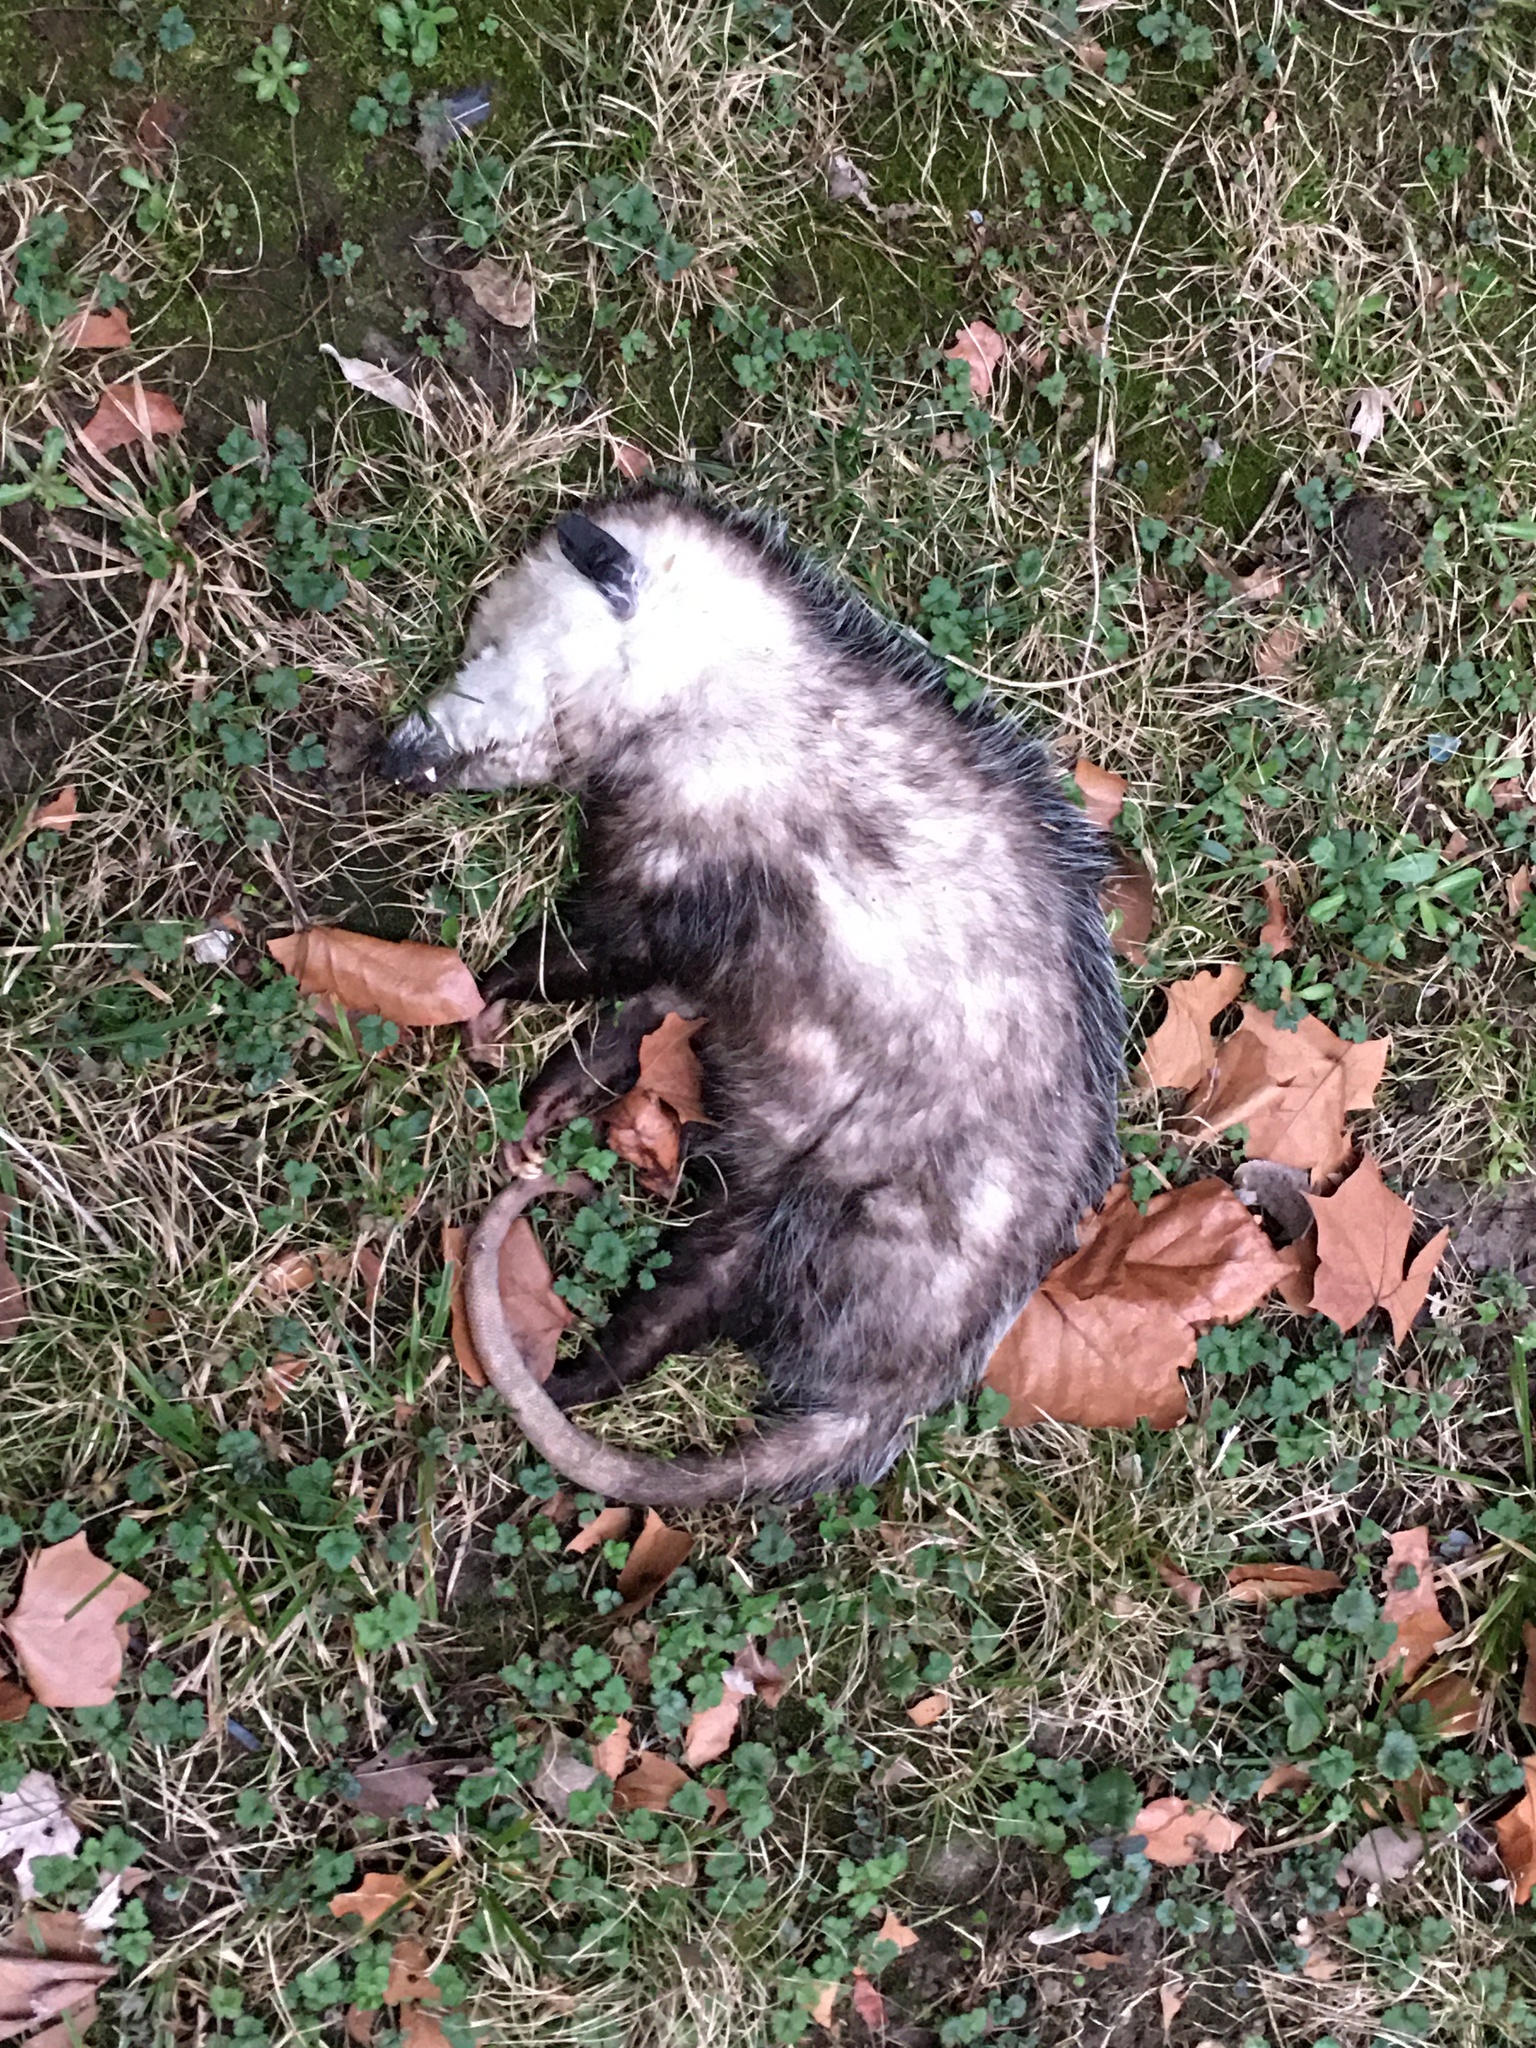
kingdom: Animalia
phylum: Chordata
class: Mammalia
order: Didelphimorphia
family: Didelphidae
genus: Didelphis
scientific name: Didelphis virginiana
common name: Virginia opossum
